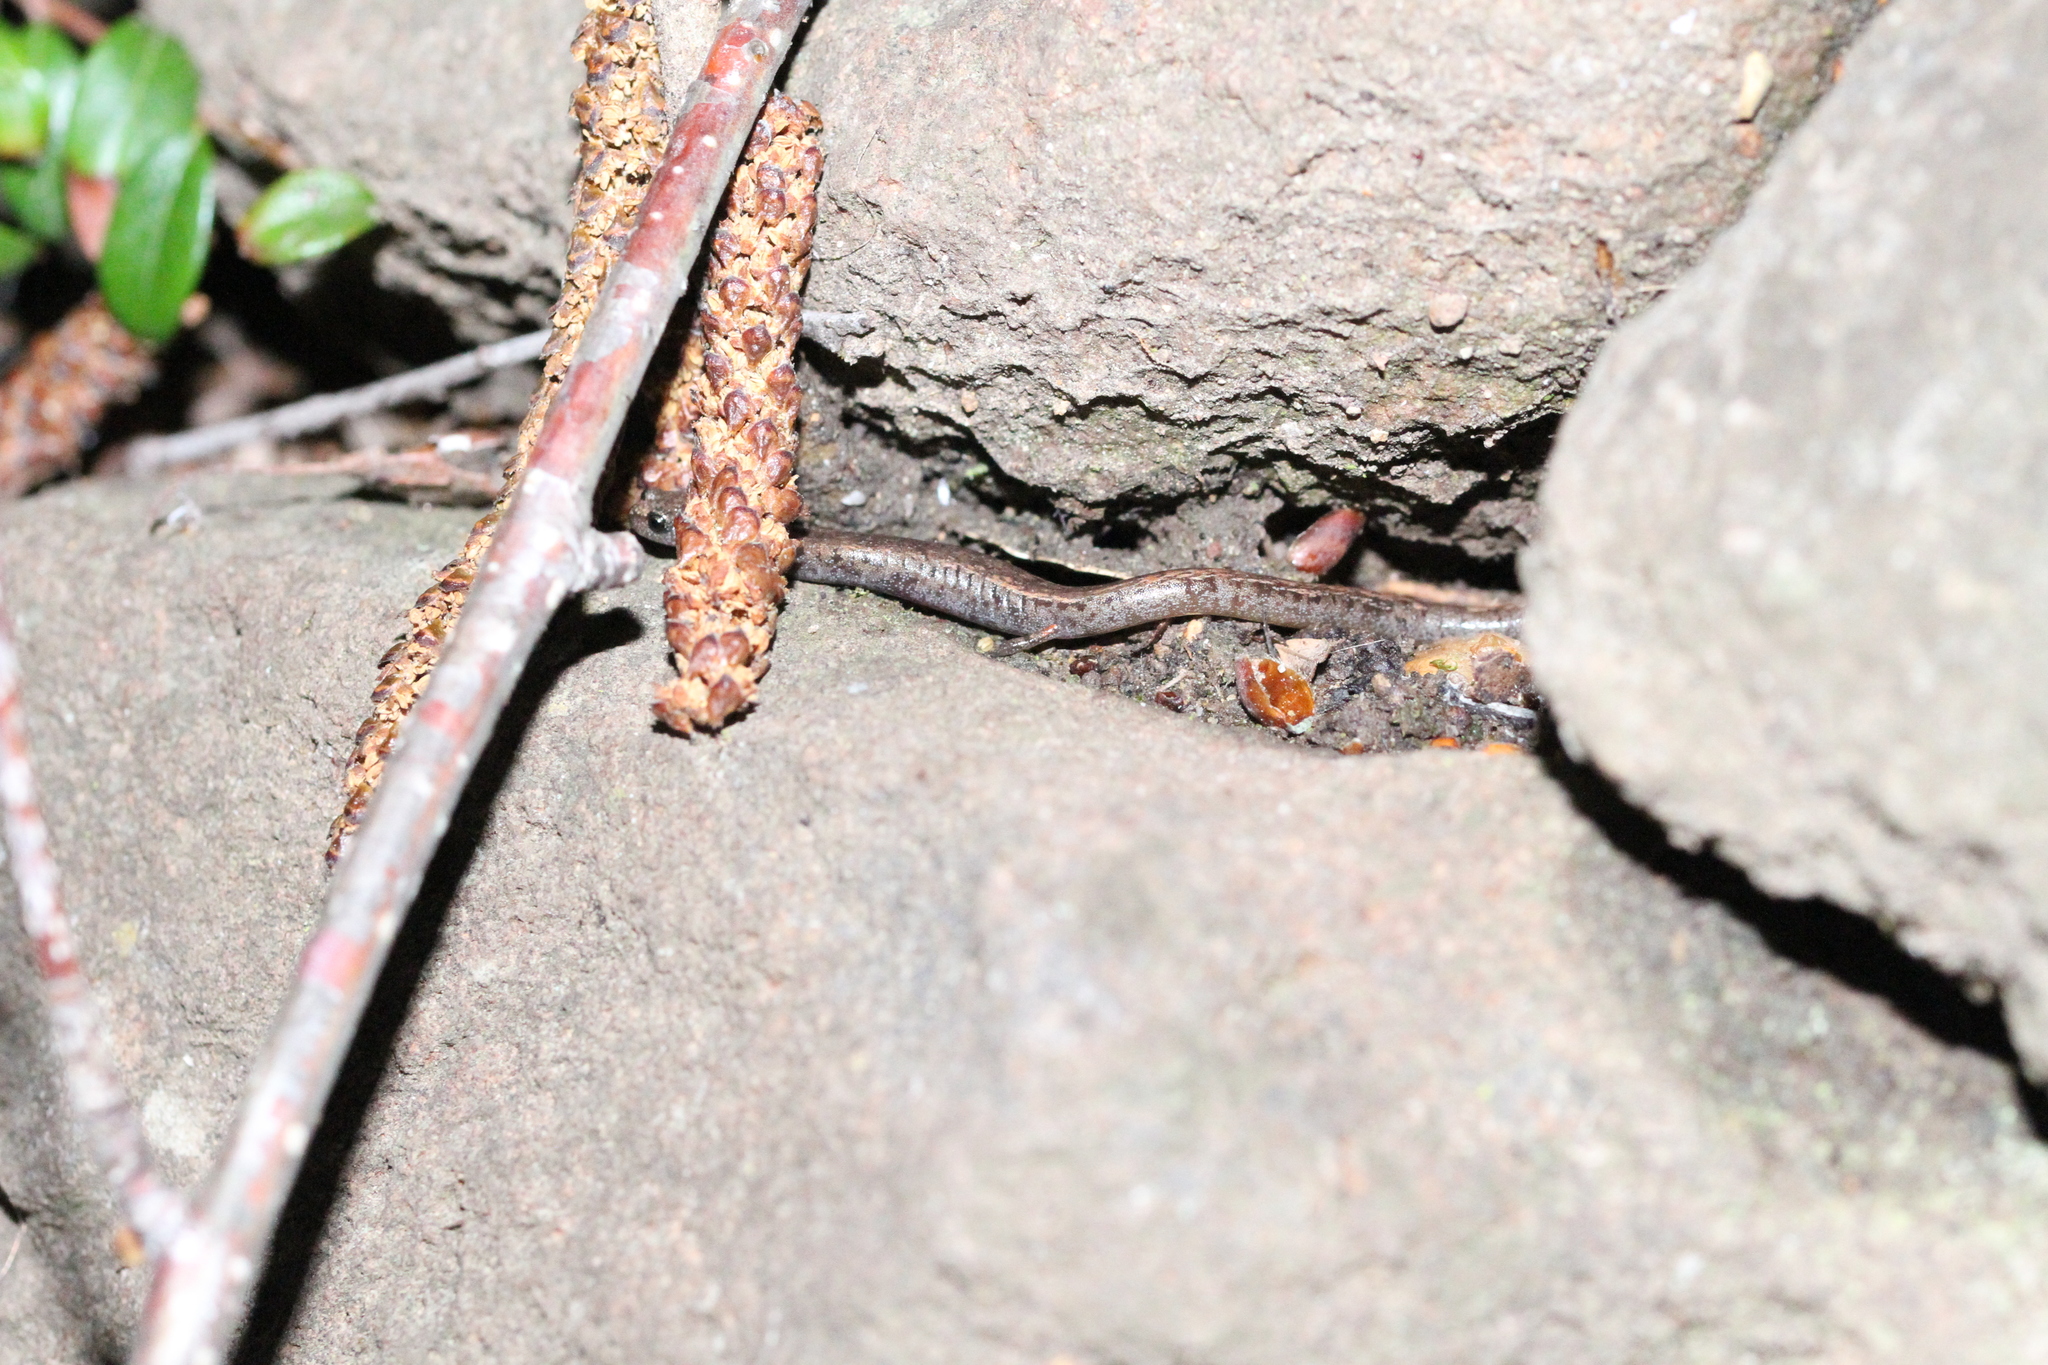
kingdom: Animalia
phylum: Chordata
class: Amphibia
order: Caudata
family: Plethodontidae
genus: Batrachoseps
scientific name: Batrachoseps attenuatus
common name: California slender salamander
